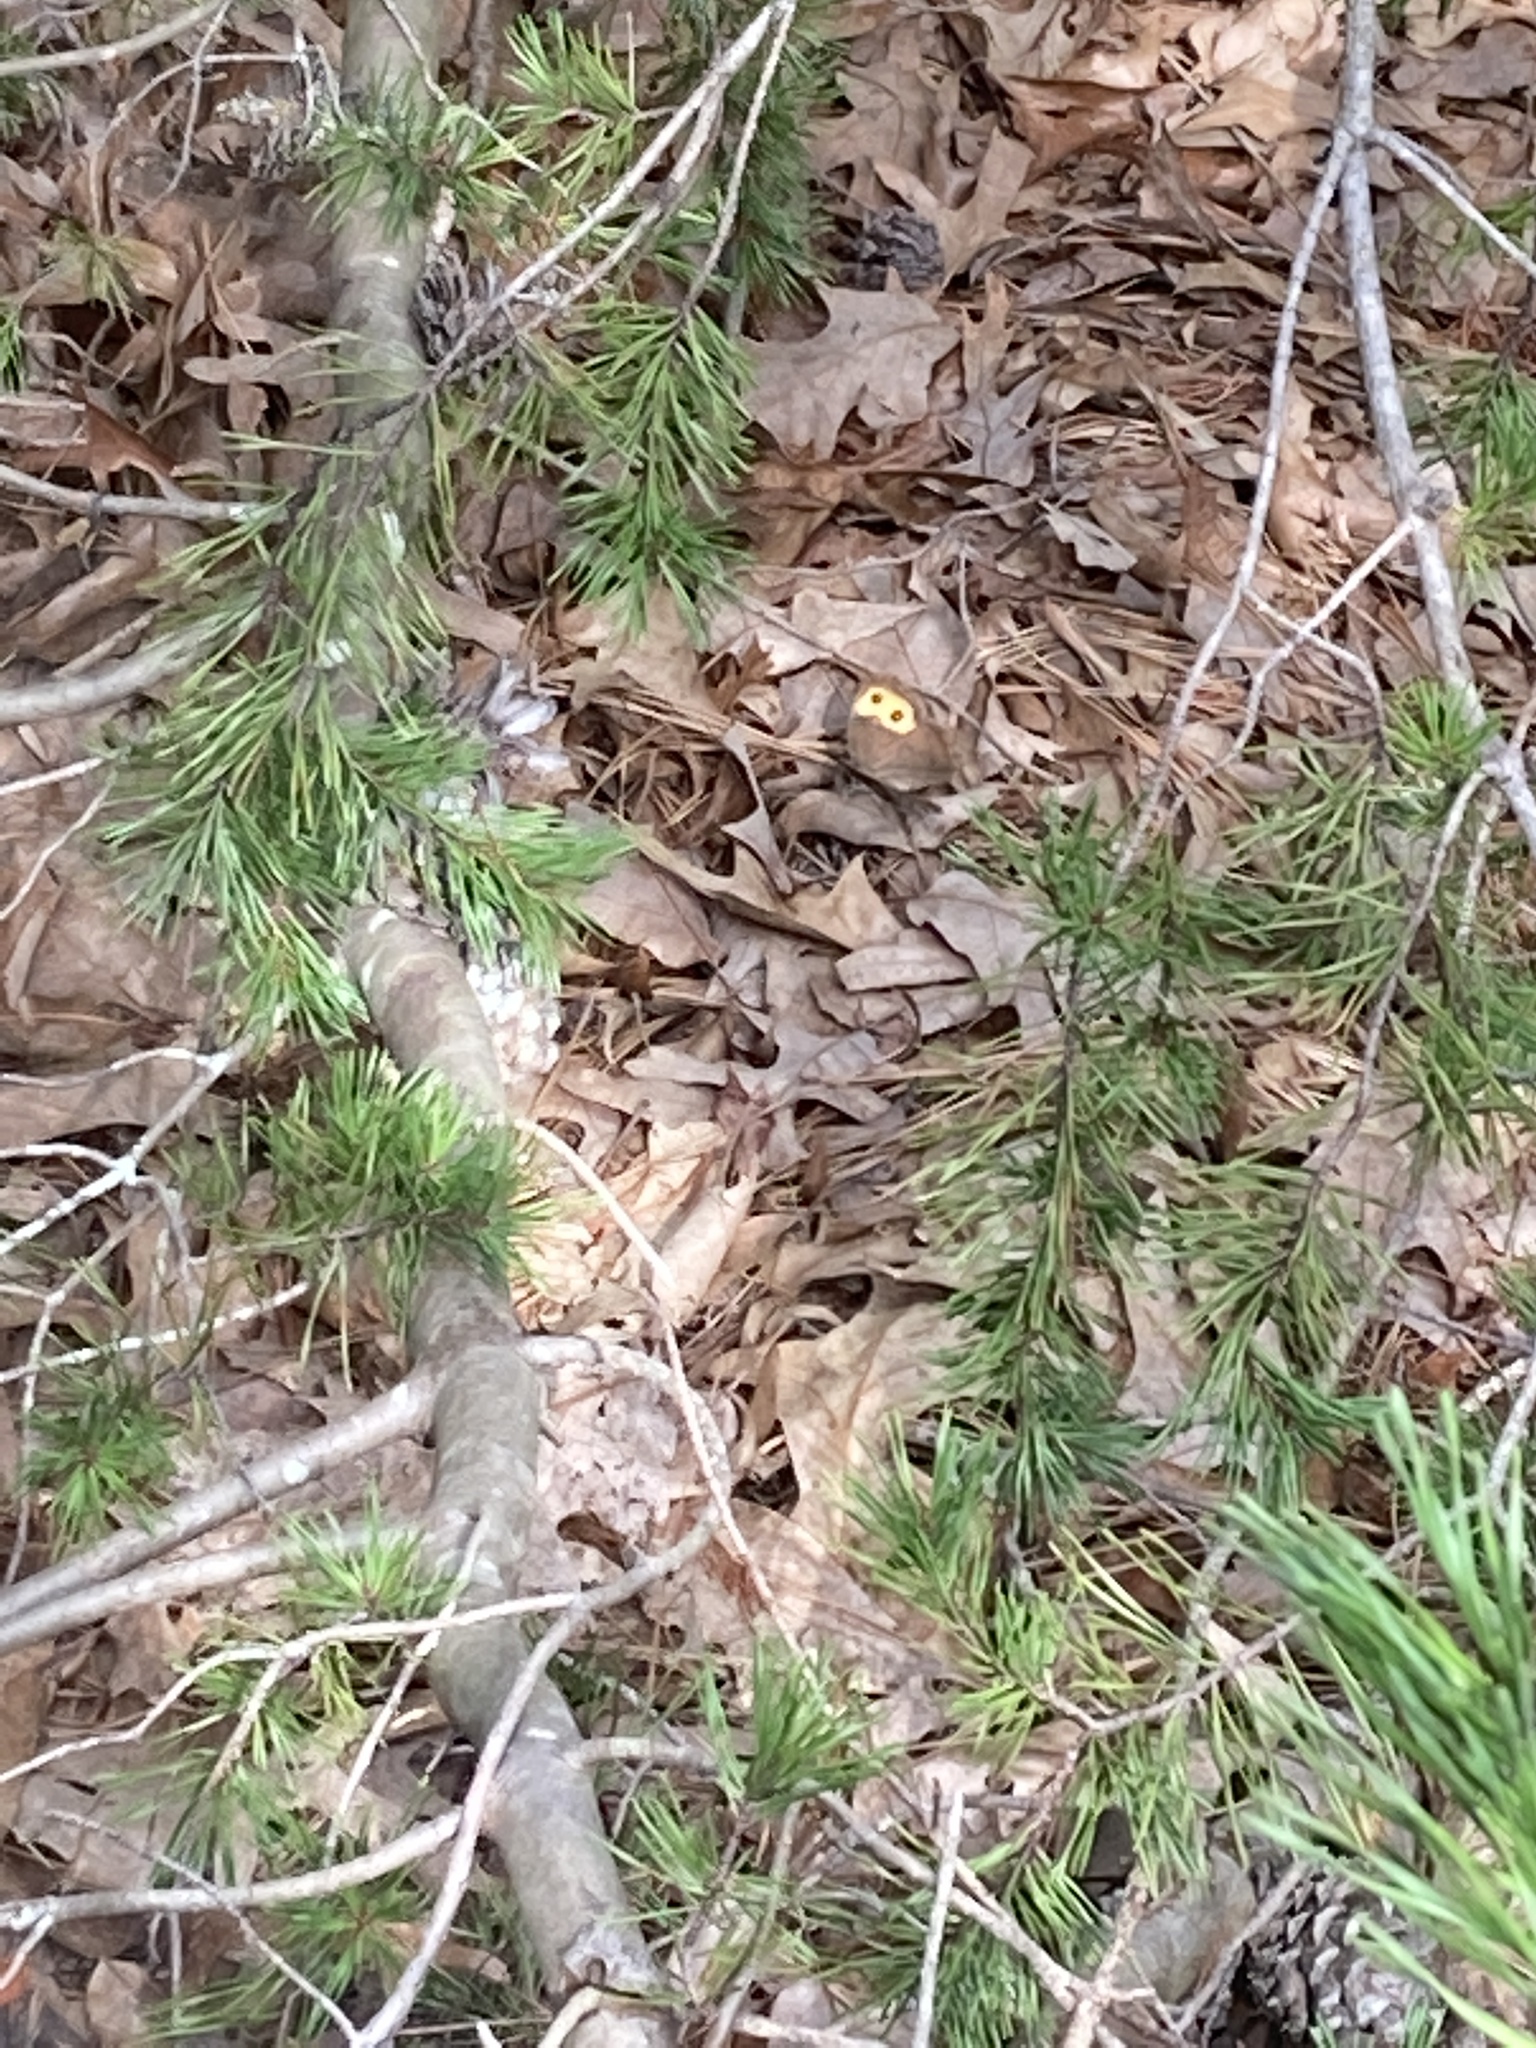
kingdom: Animalia
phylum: Arthropoda
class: Insecta
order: Lepidoptera
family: Nymphalidae
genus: Cercyonis
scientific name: Cercyonis pegala
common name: Common wood-nymph
